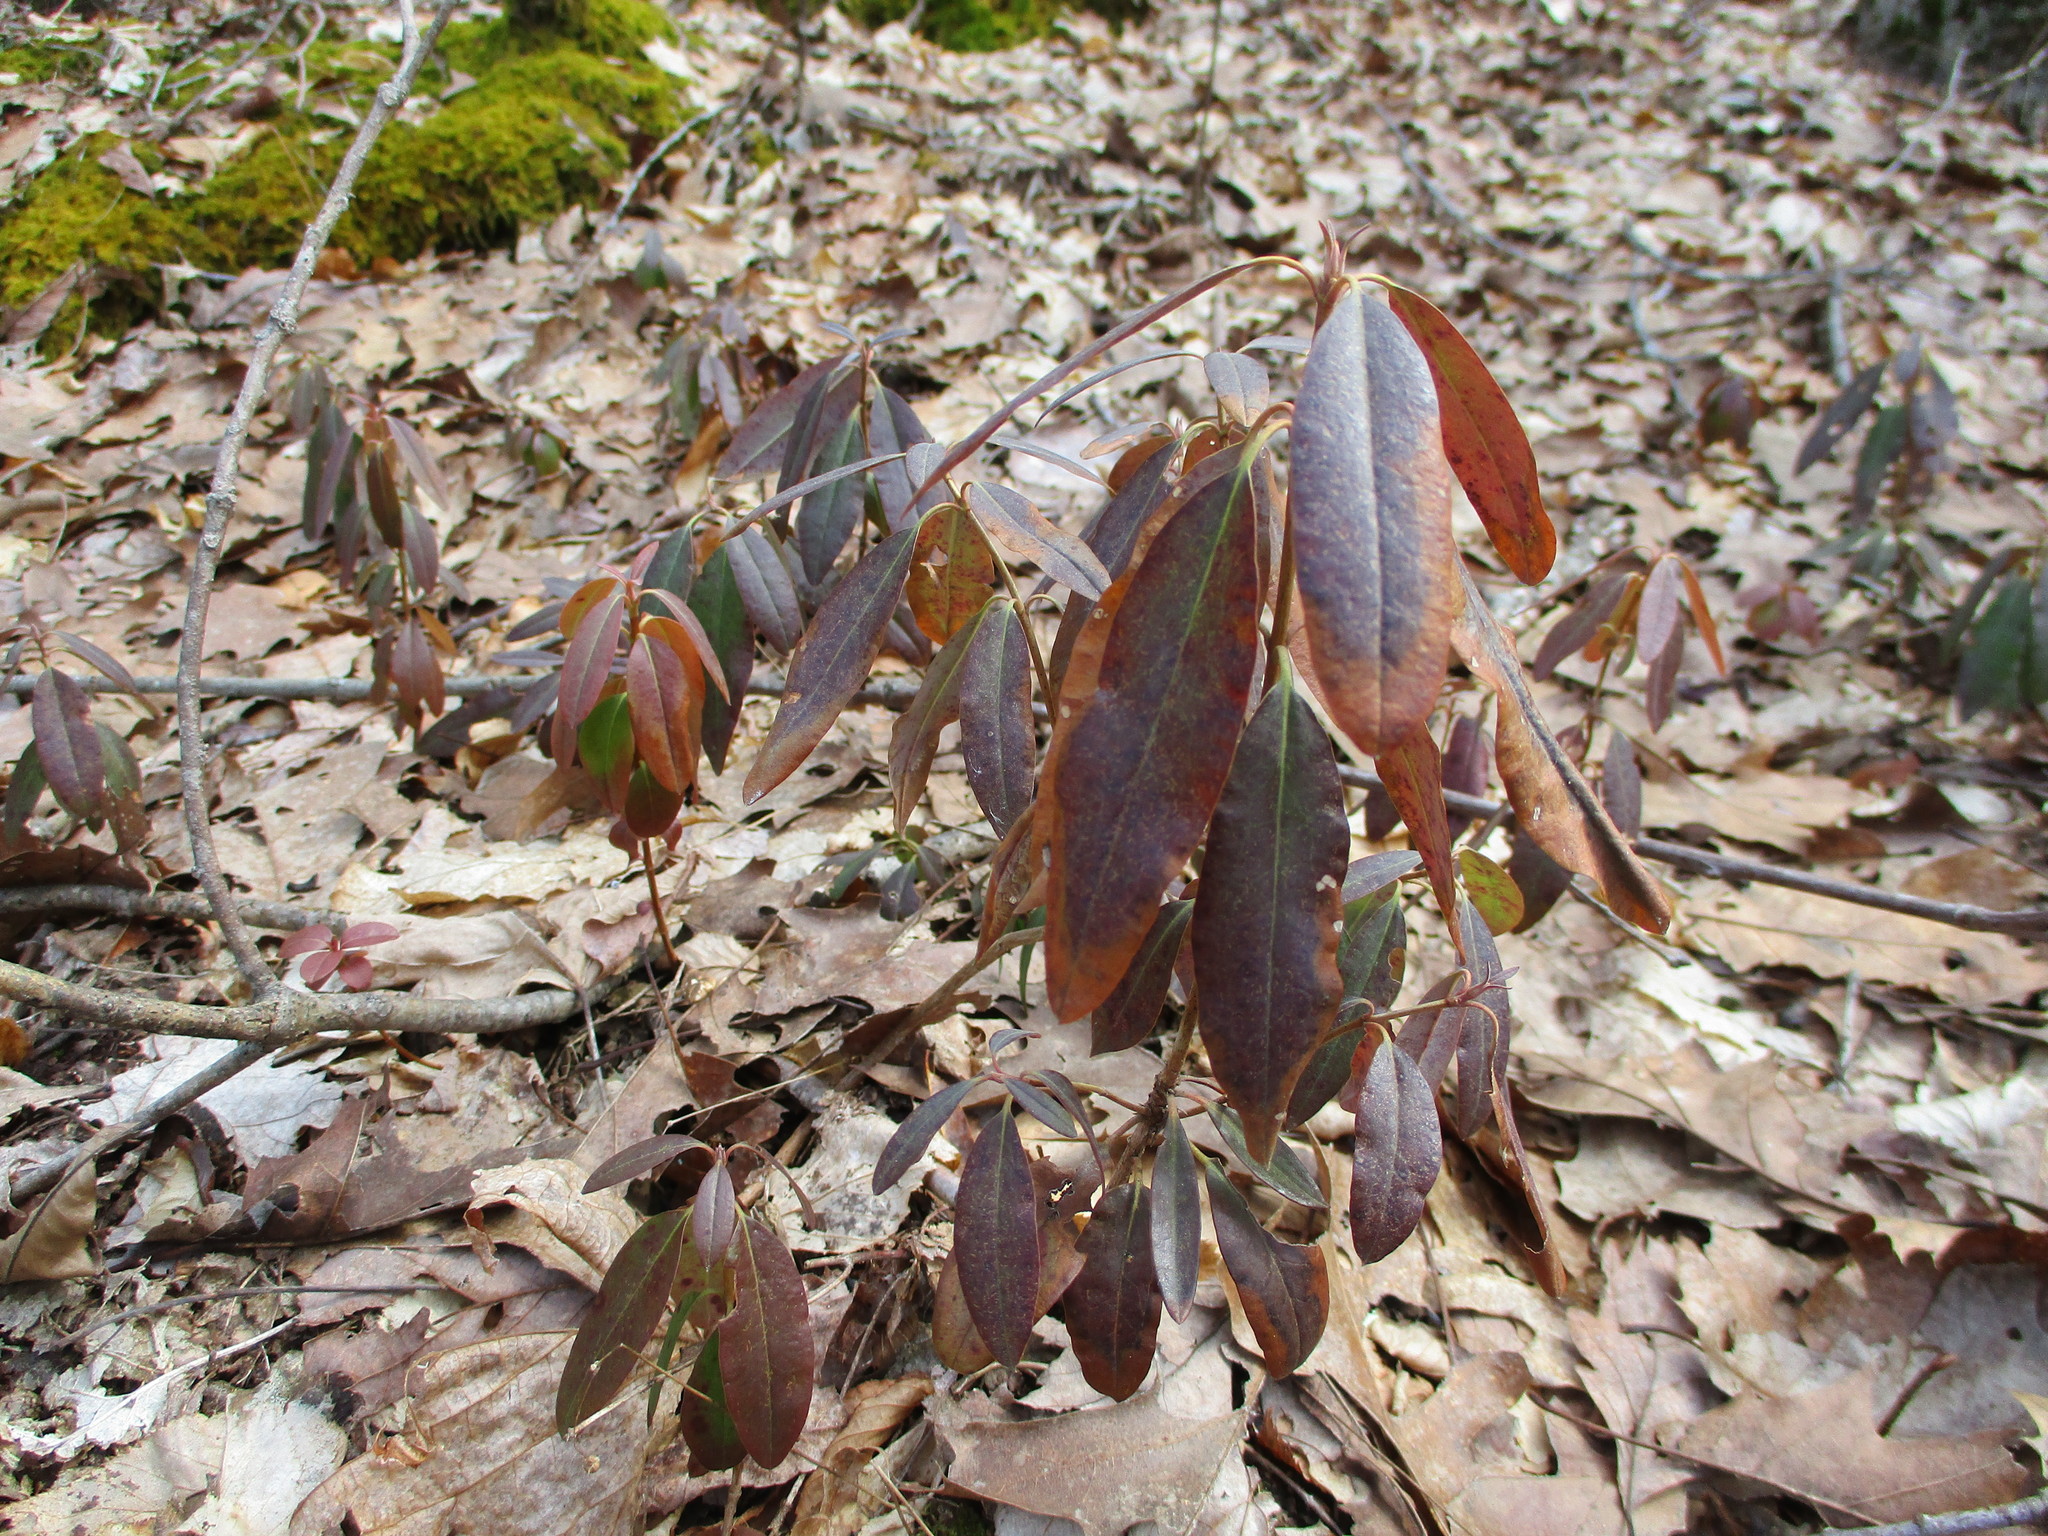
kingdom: Plantae
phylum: Tracheophyta
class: Magnoliopsida
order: Ericales
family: Ericaceae
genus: Kalmia
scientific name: Kalmia angustifolia
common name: Sheep-laurel
